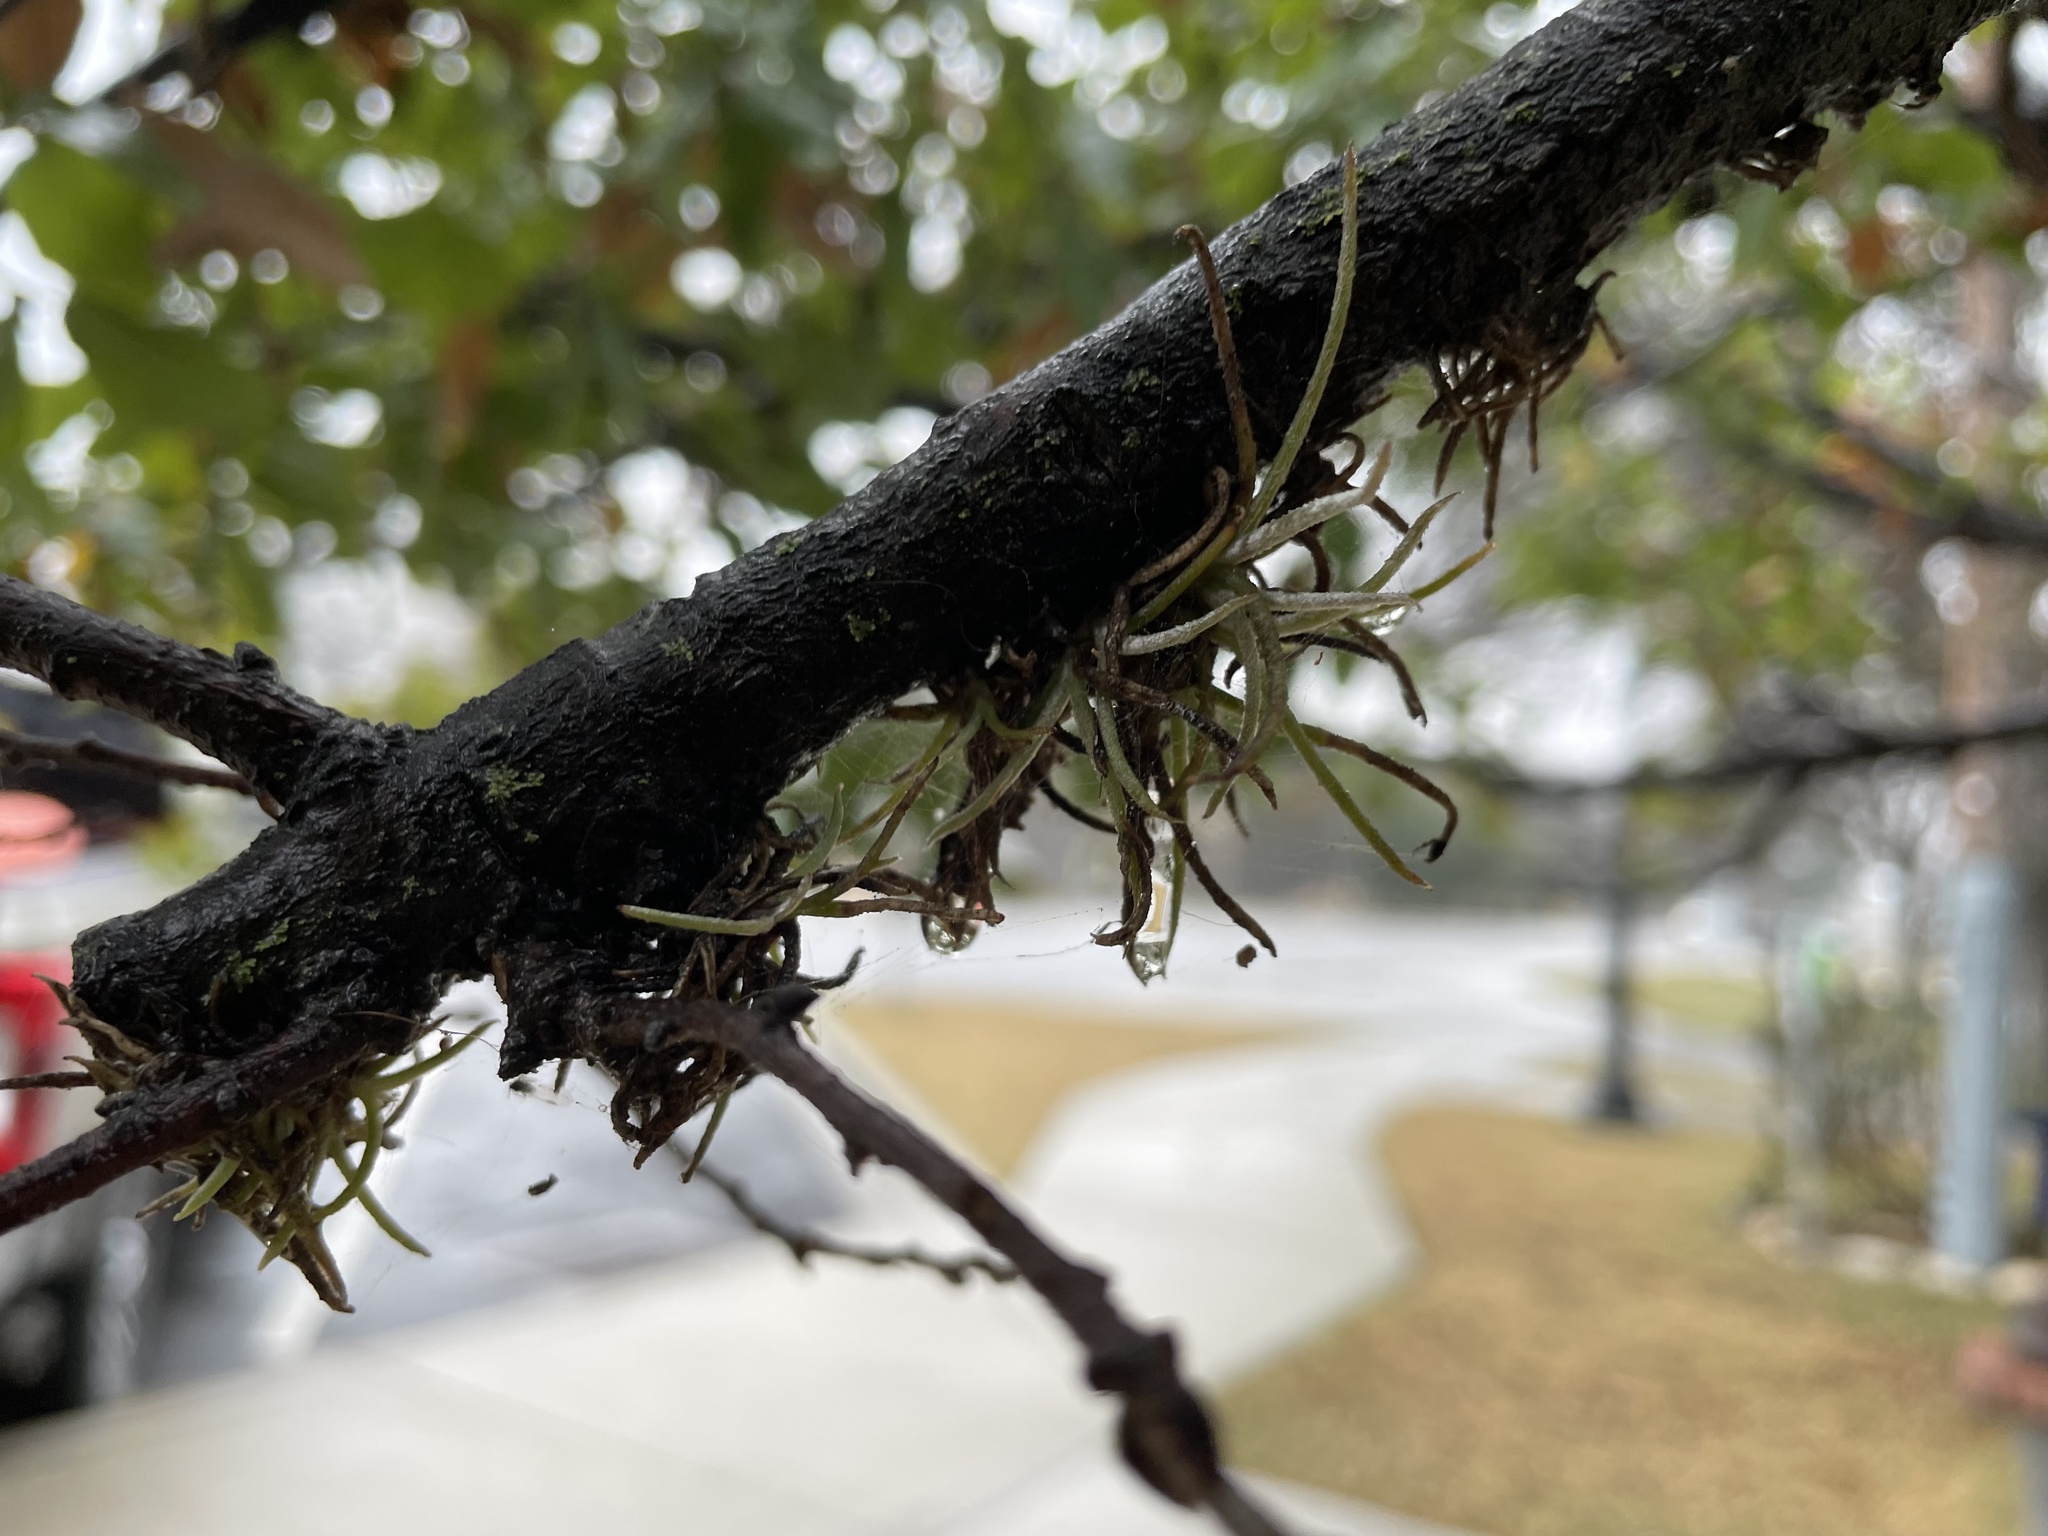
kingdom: Plantae
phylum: Tracheophyta
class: Liliopsida
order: Poales
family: Bromeliaceae
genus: Tillandsia
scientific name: Tillandsia recurvata
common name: Small ballmoss
